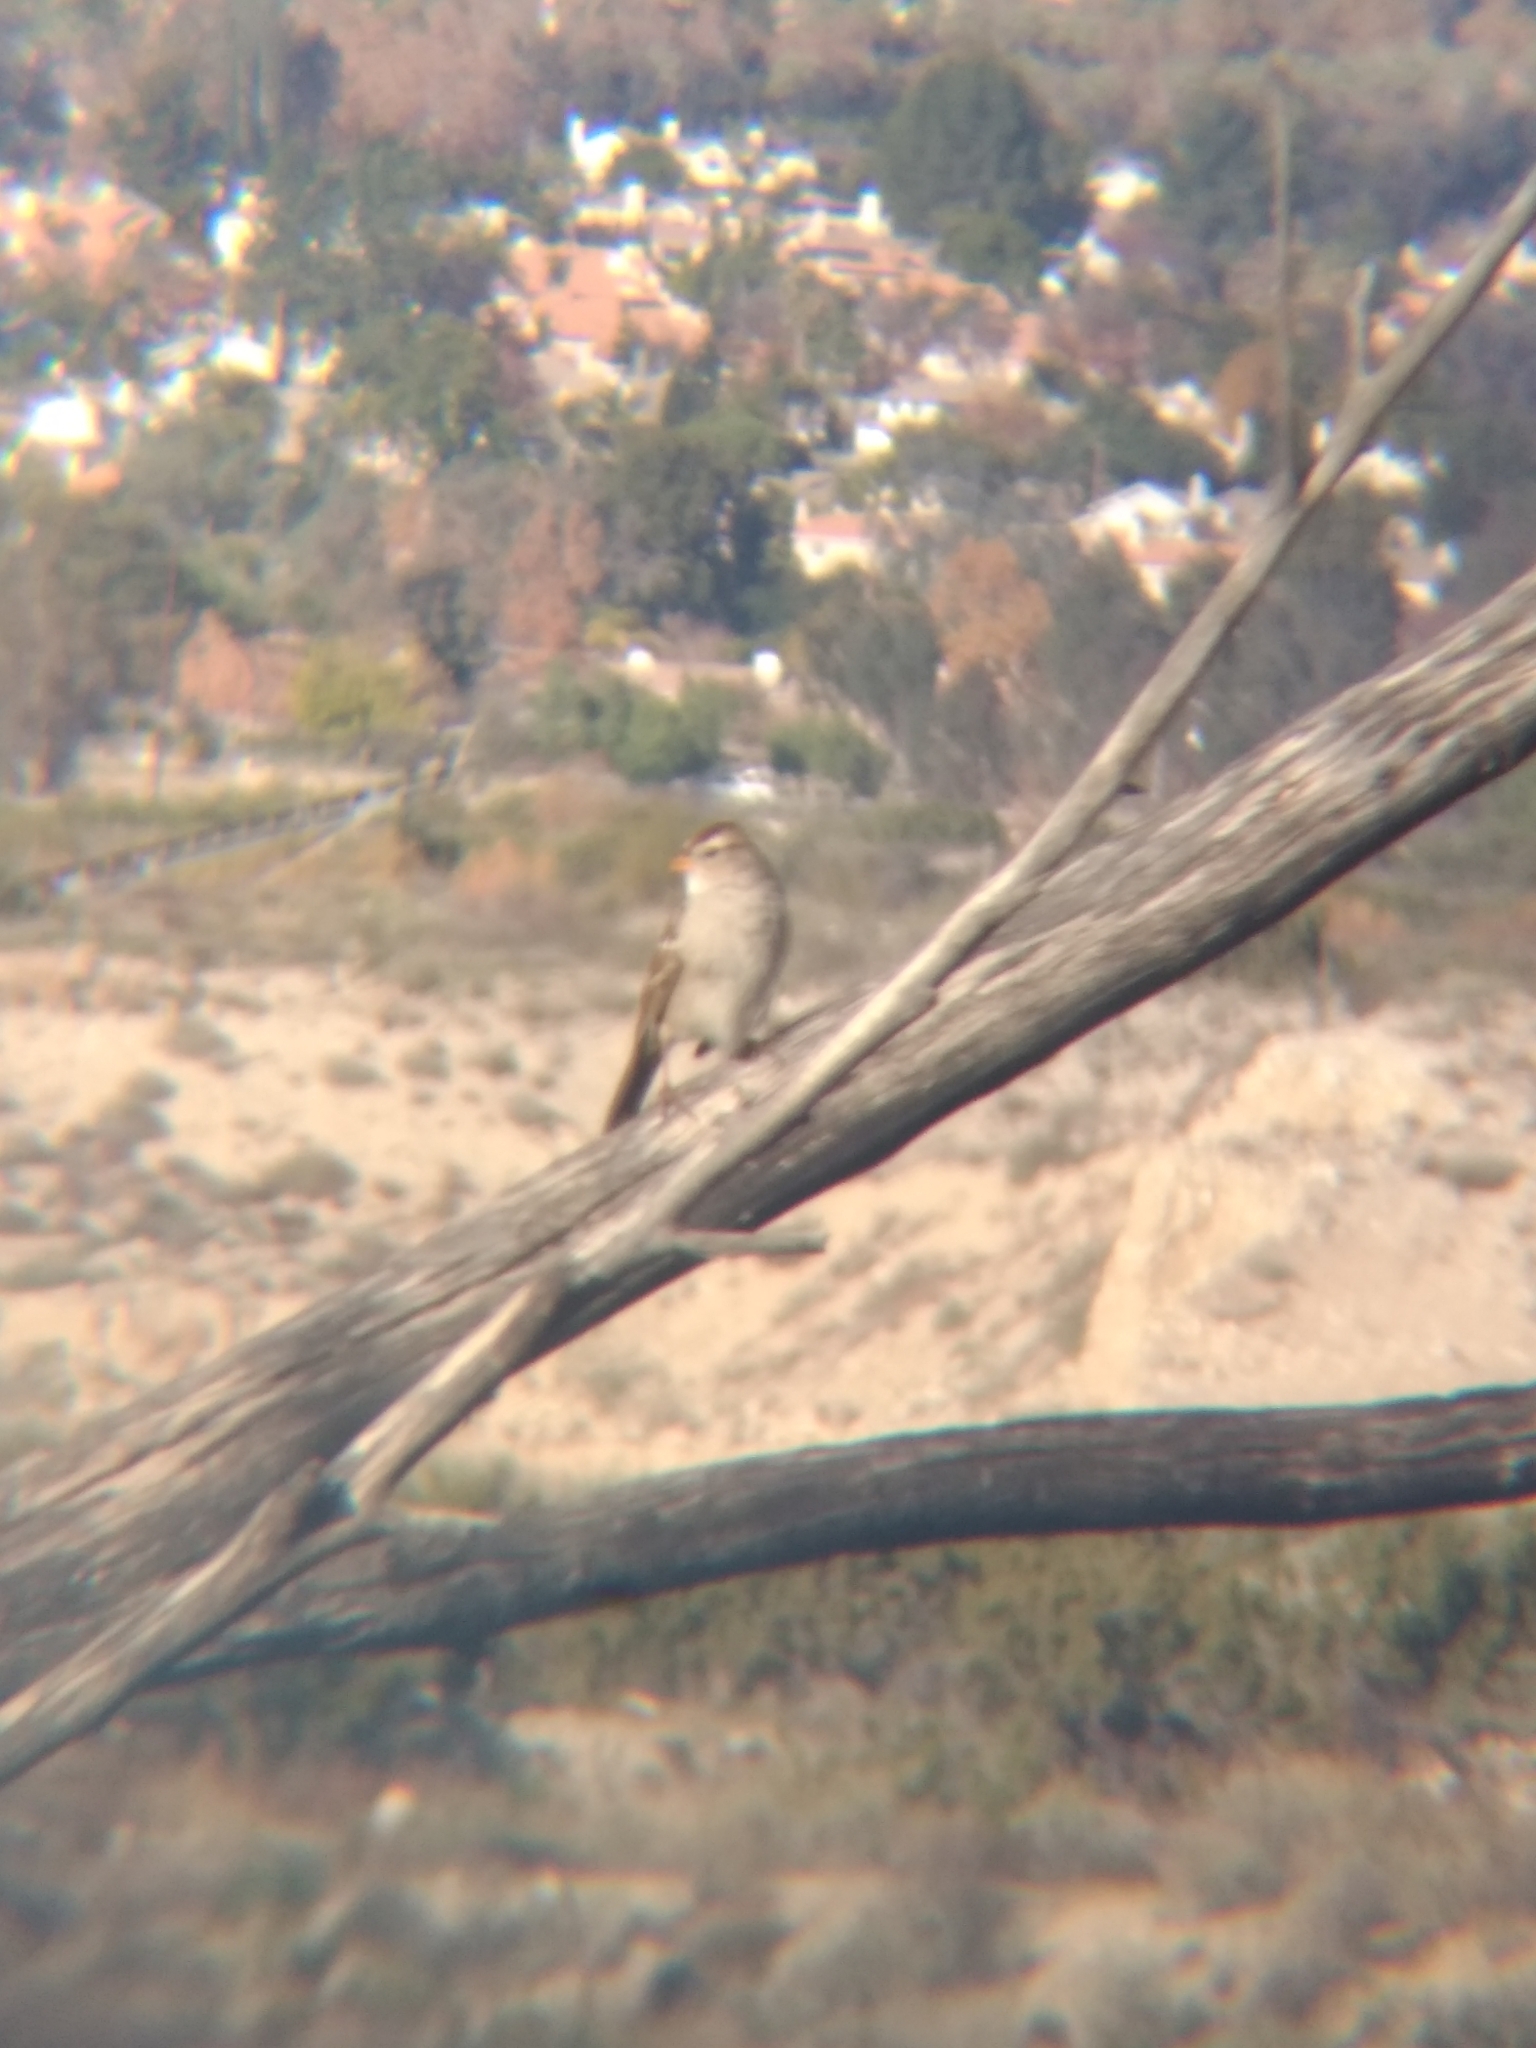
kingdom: Animalia
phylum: Chordata
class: Aves
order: Passeriformes
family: Passerellidae
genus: Zonotrichia
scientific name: Zonotrichia leucophrys
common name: White-crowned sparrow
